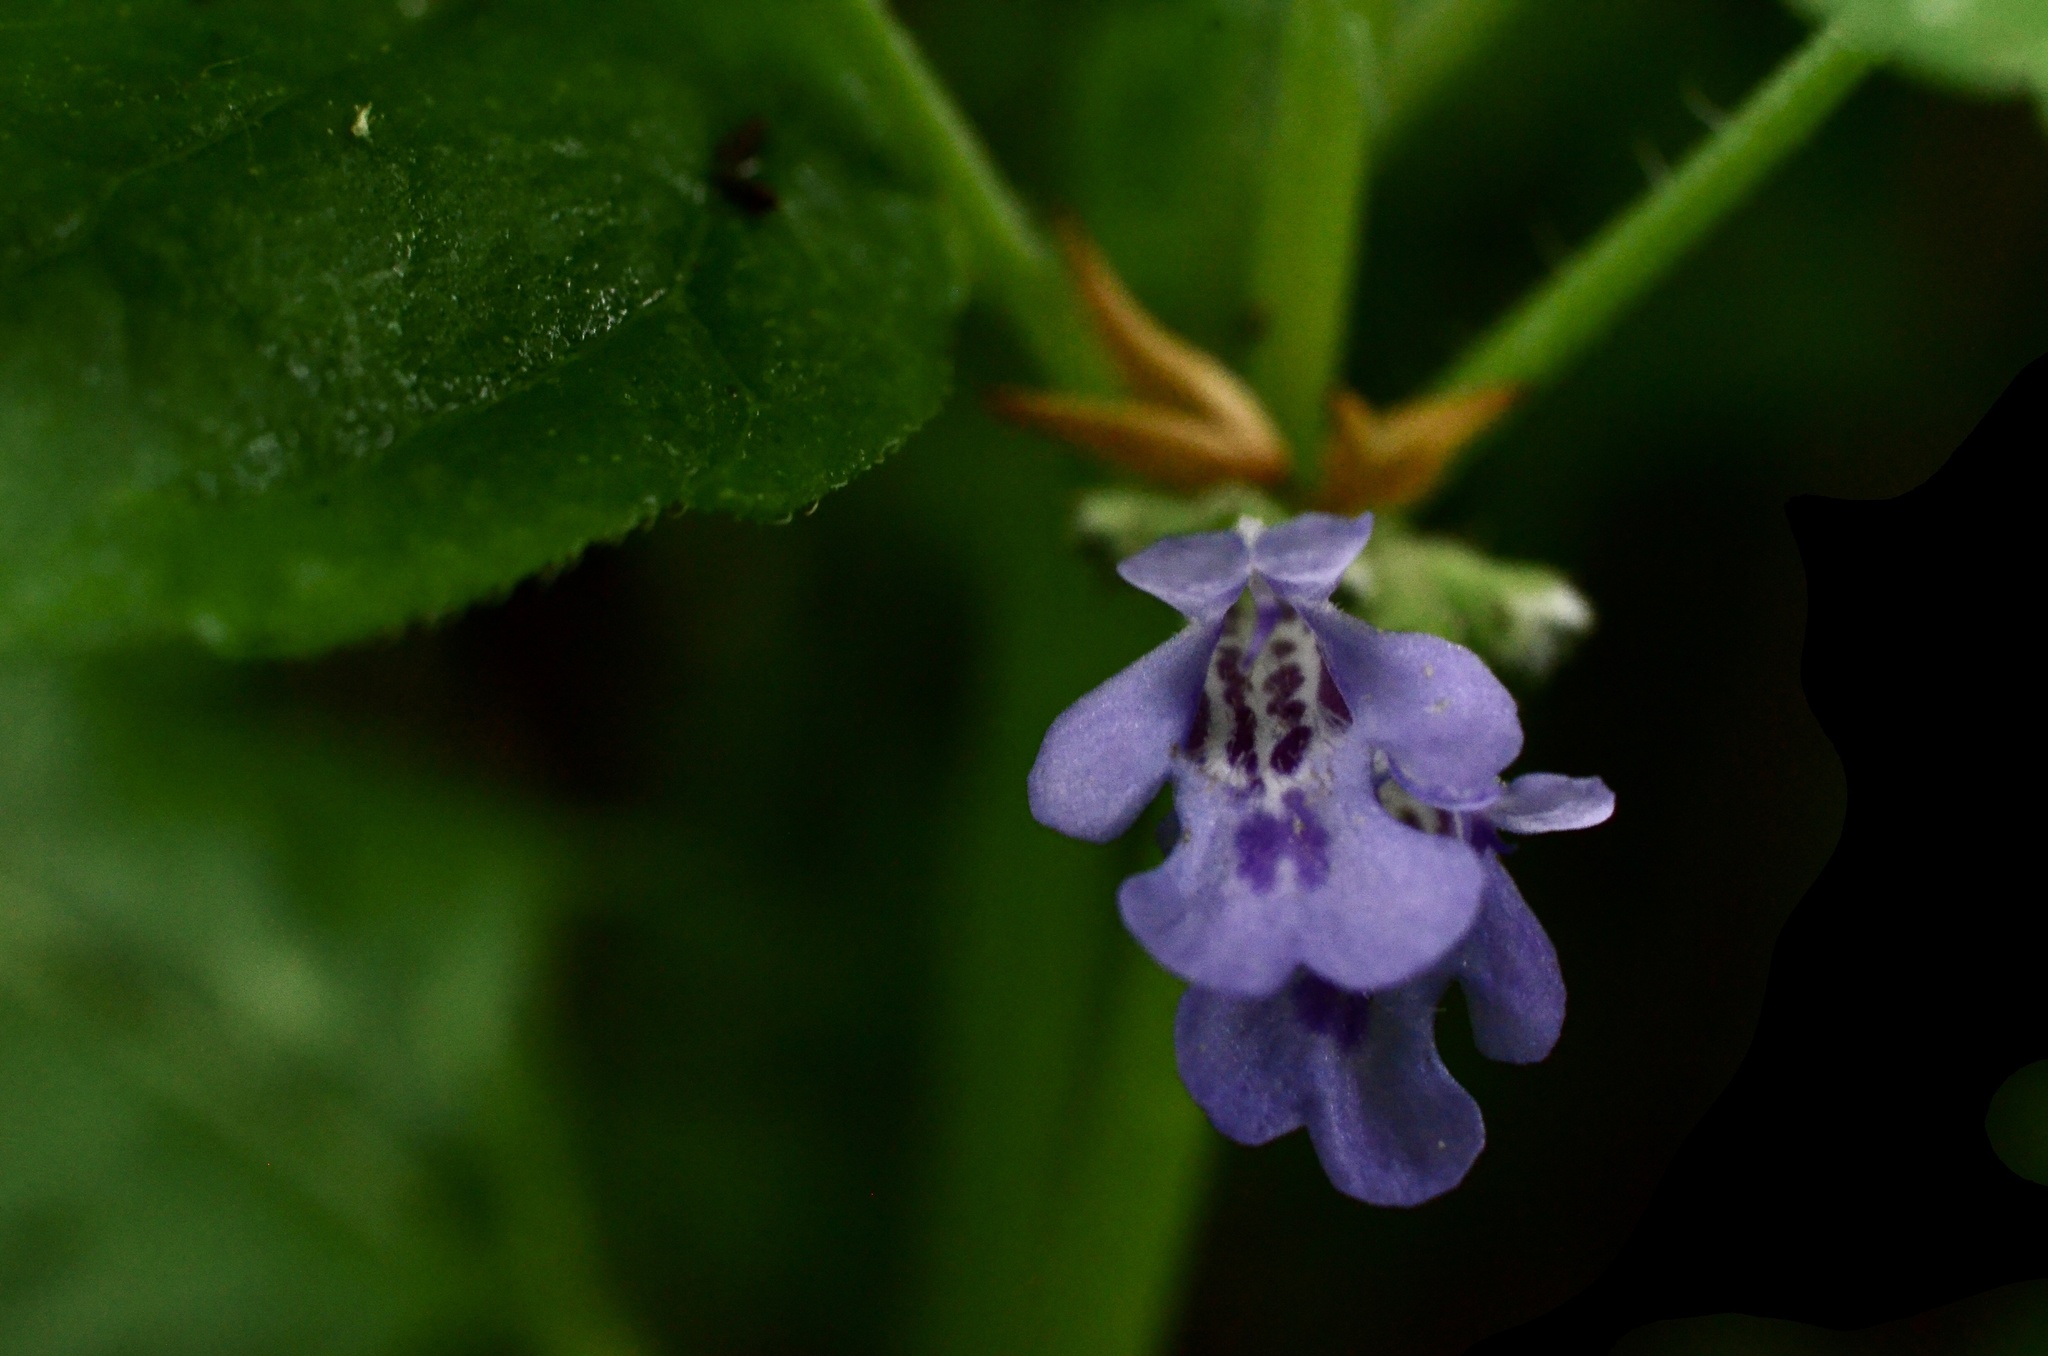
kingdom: Plantae
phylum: Tracheophyta
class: Magnoliopsida
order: Lamiales
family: Lamiaceae
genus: Glechoma
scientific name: Glechoma hederacea
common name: Ground ivy
